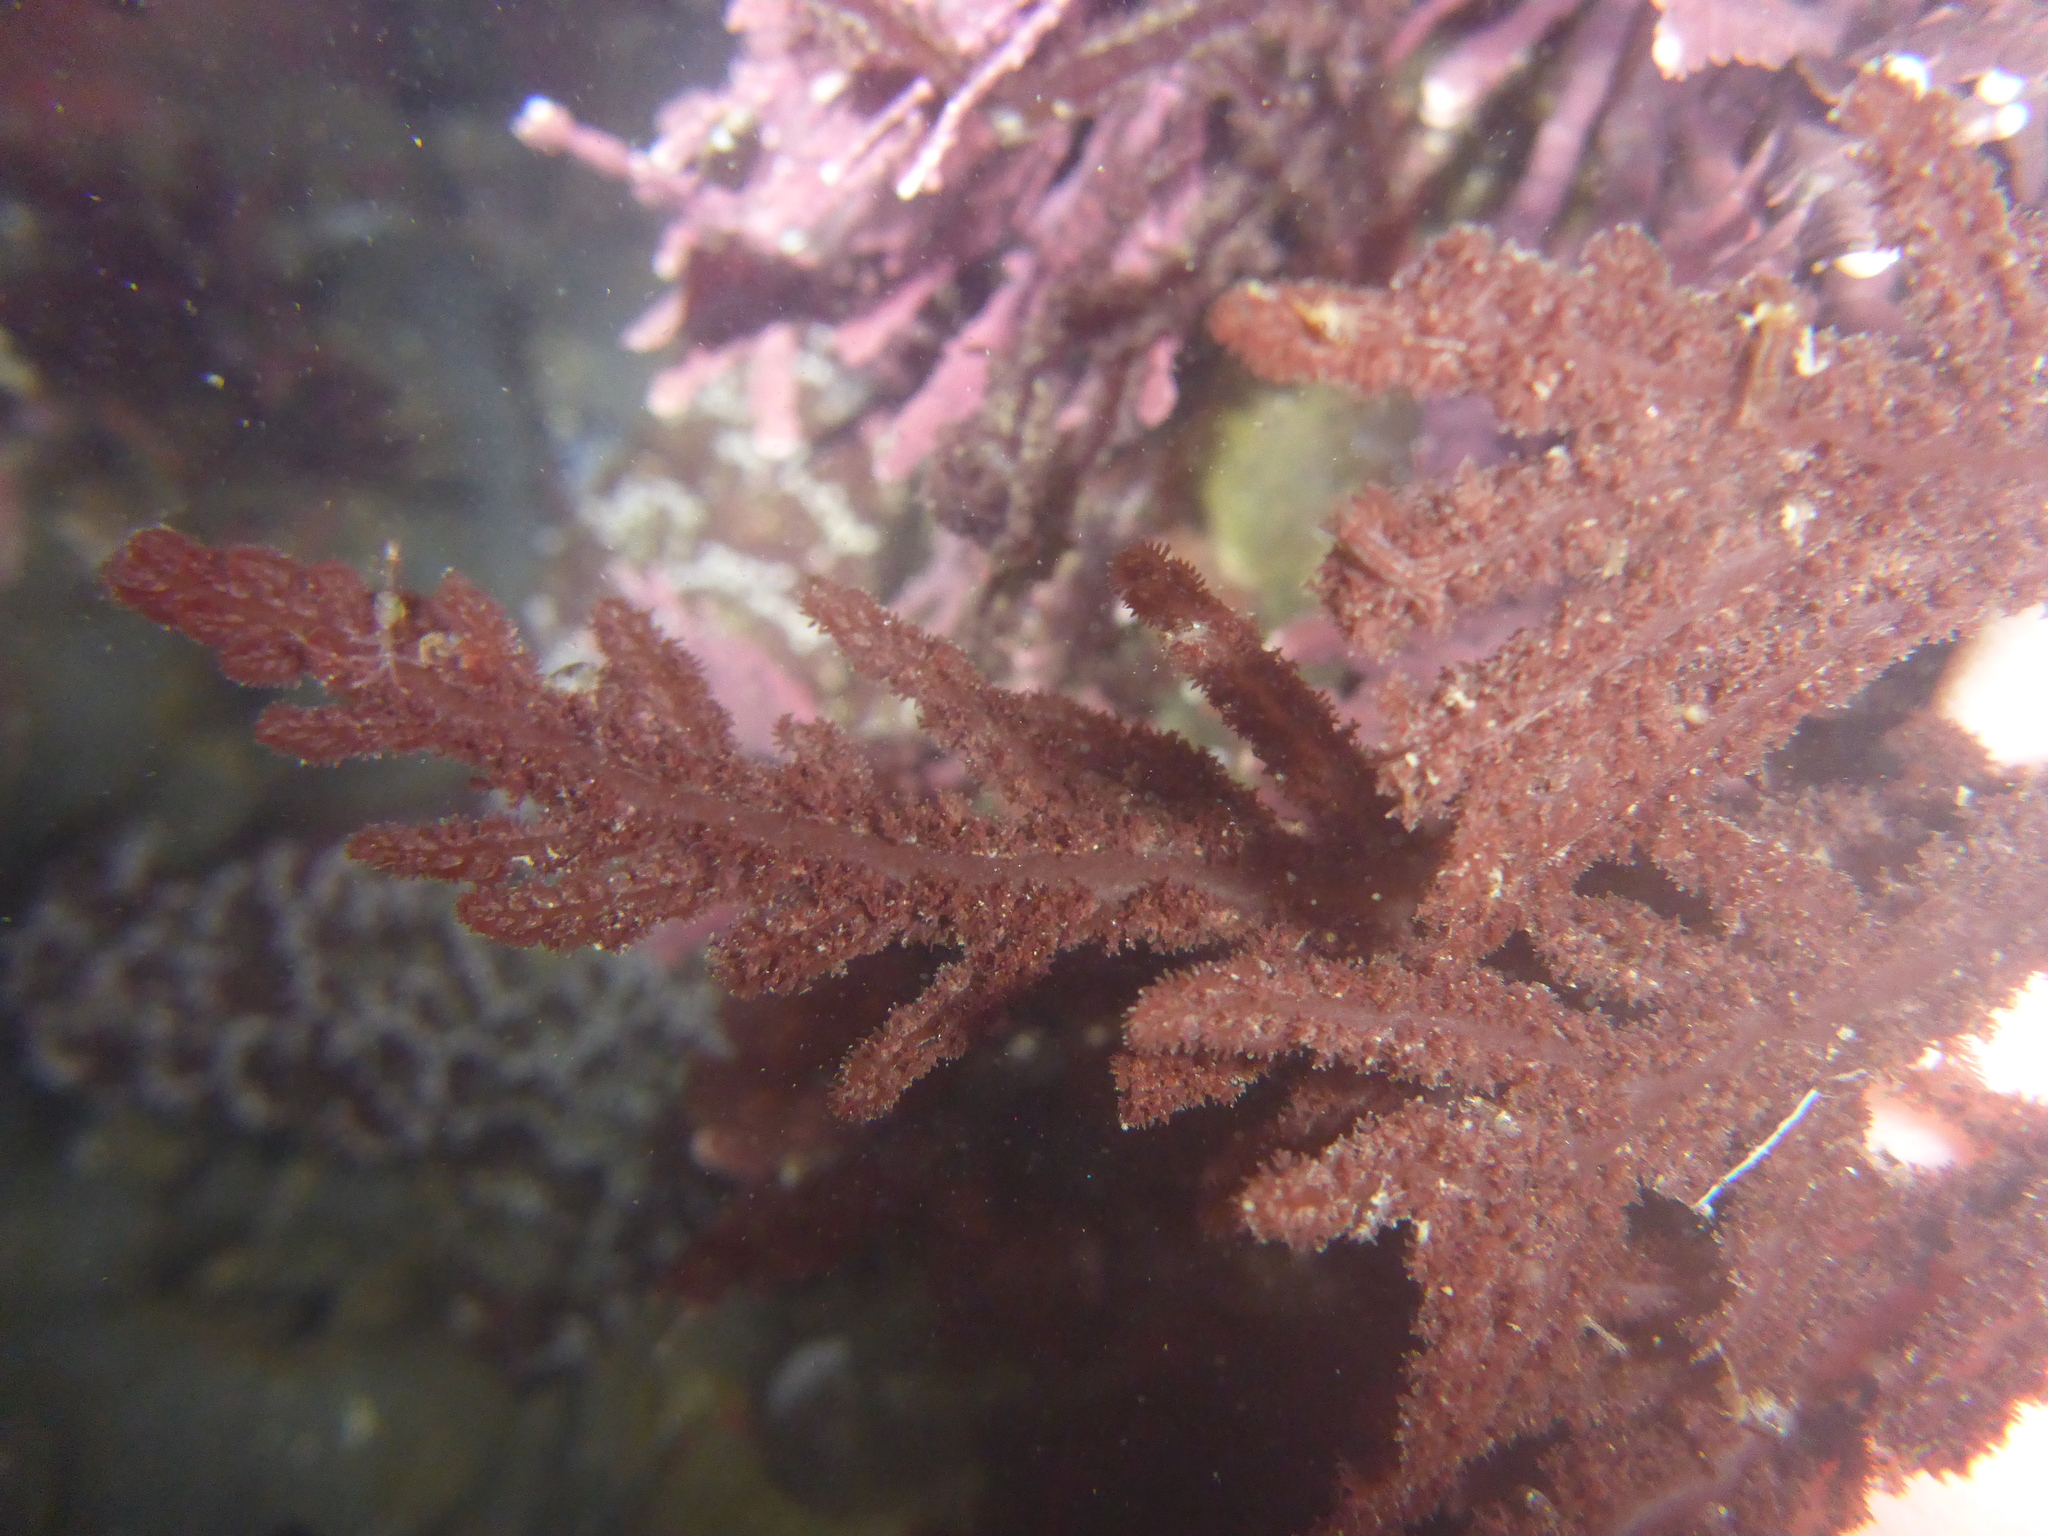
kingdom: Plantae
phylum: Rhodophyta
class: Florideophyceae
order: Ceramiales
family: Wrangeliaceae
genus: Neoptilota
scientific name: Neoptilota densa
